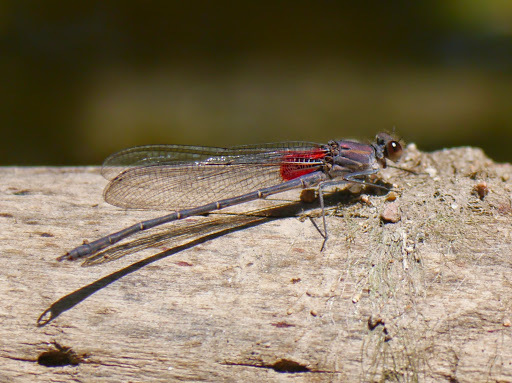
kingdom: Animalia
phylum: Arthropoda
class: Insecta
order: Odonata
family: Calopterygidae
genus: Hetaerina
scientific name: Hetaerina americana
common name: American rubyspot
